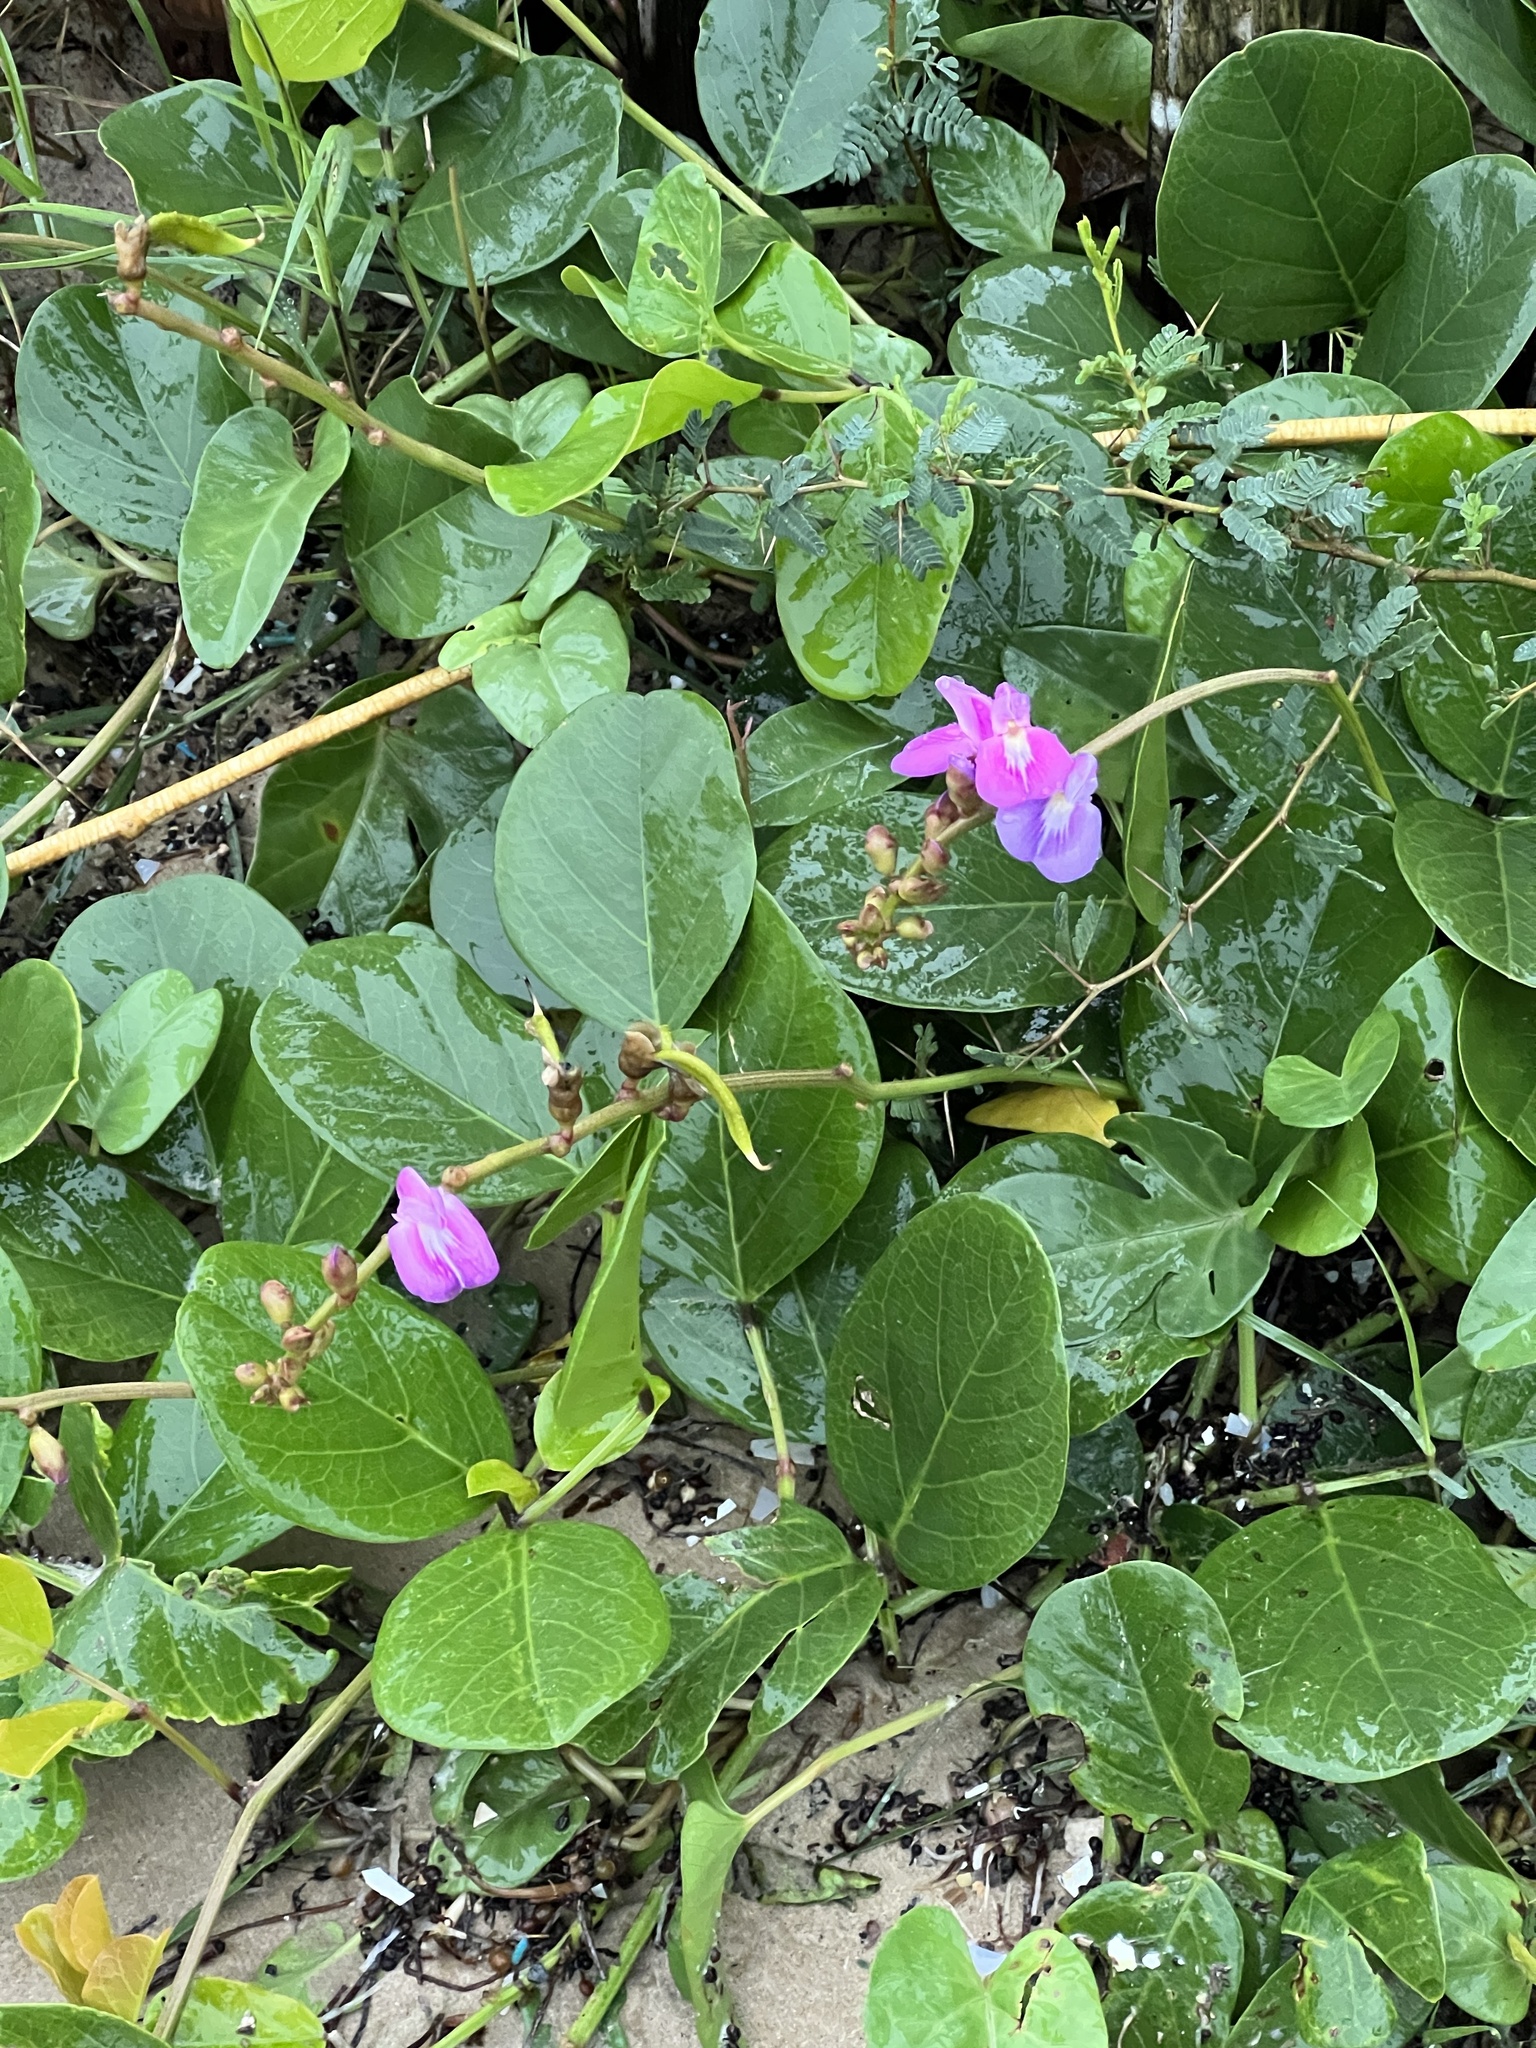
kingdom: Plantae
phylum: Tracheophyta
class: Magnoliopsida
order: Fabales
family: Fabaceae
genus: Canavalia
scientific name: Canavalia rosea
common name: Beach-bean
